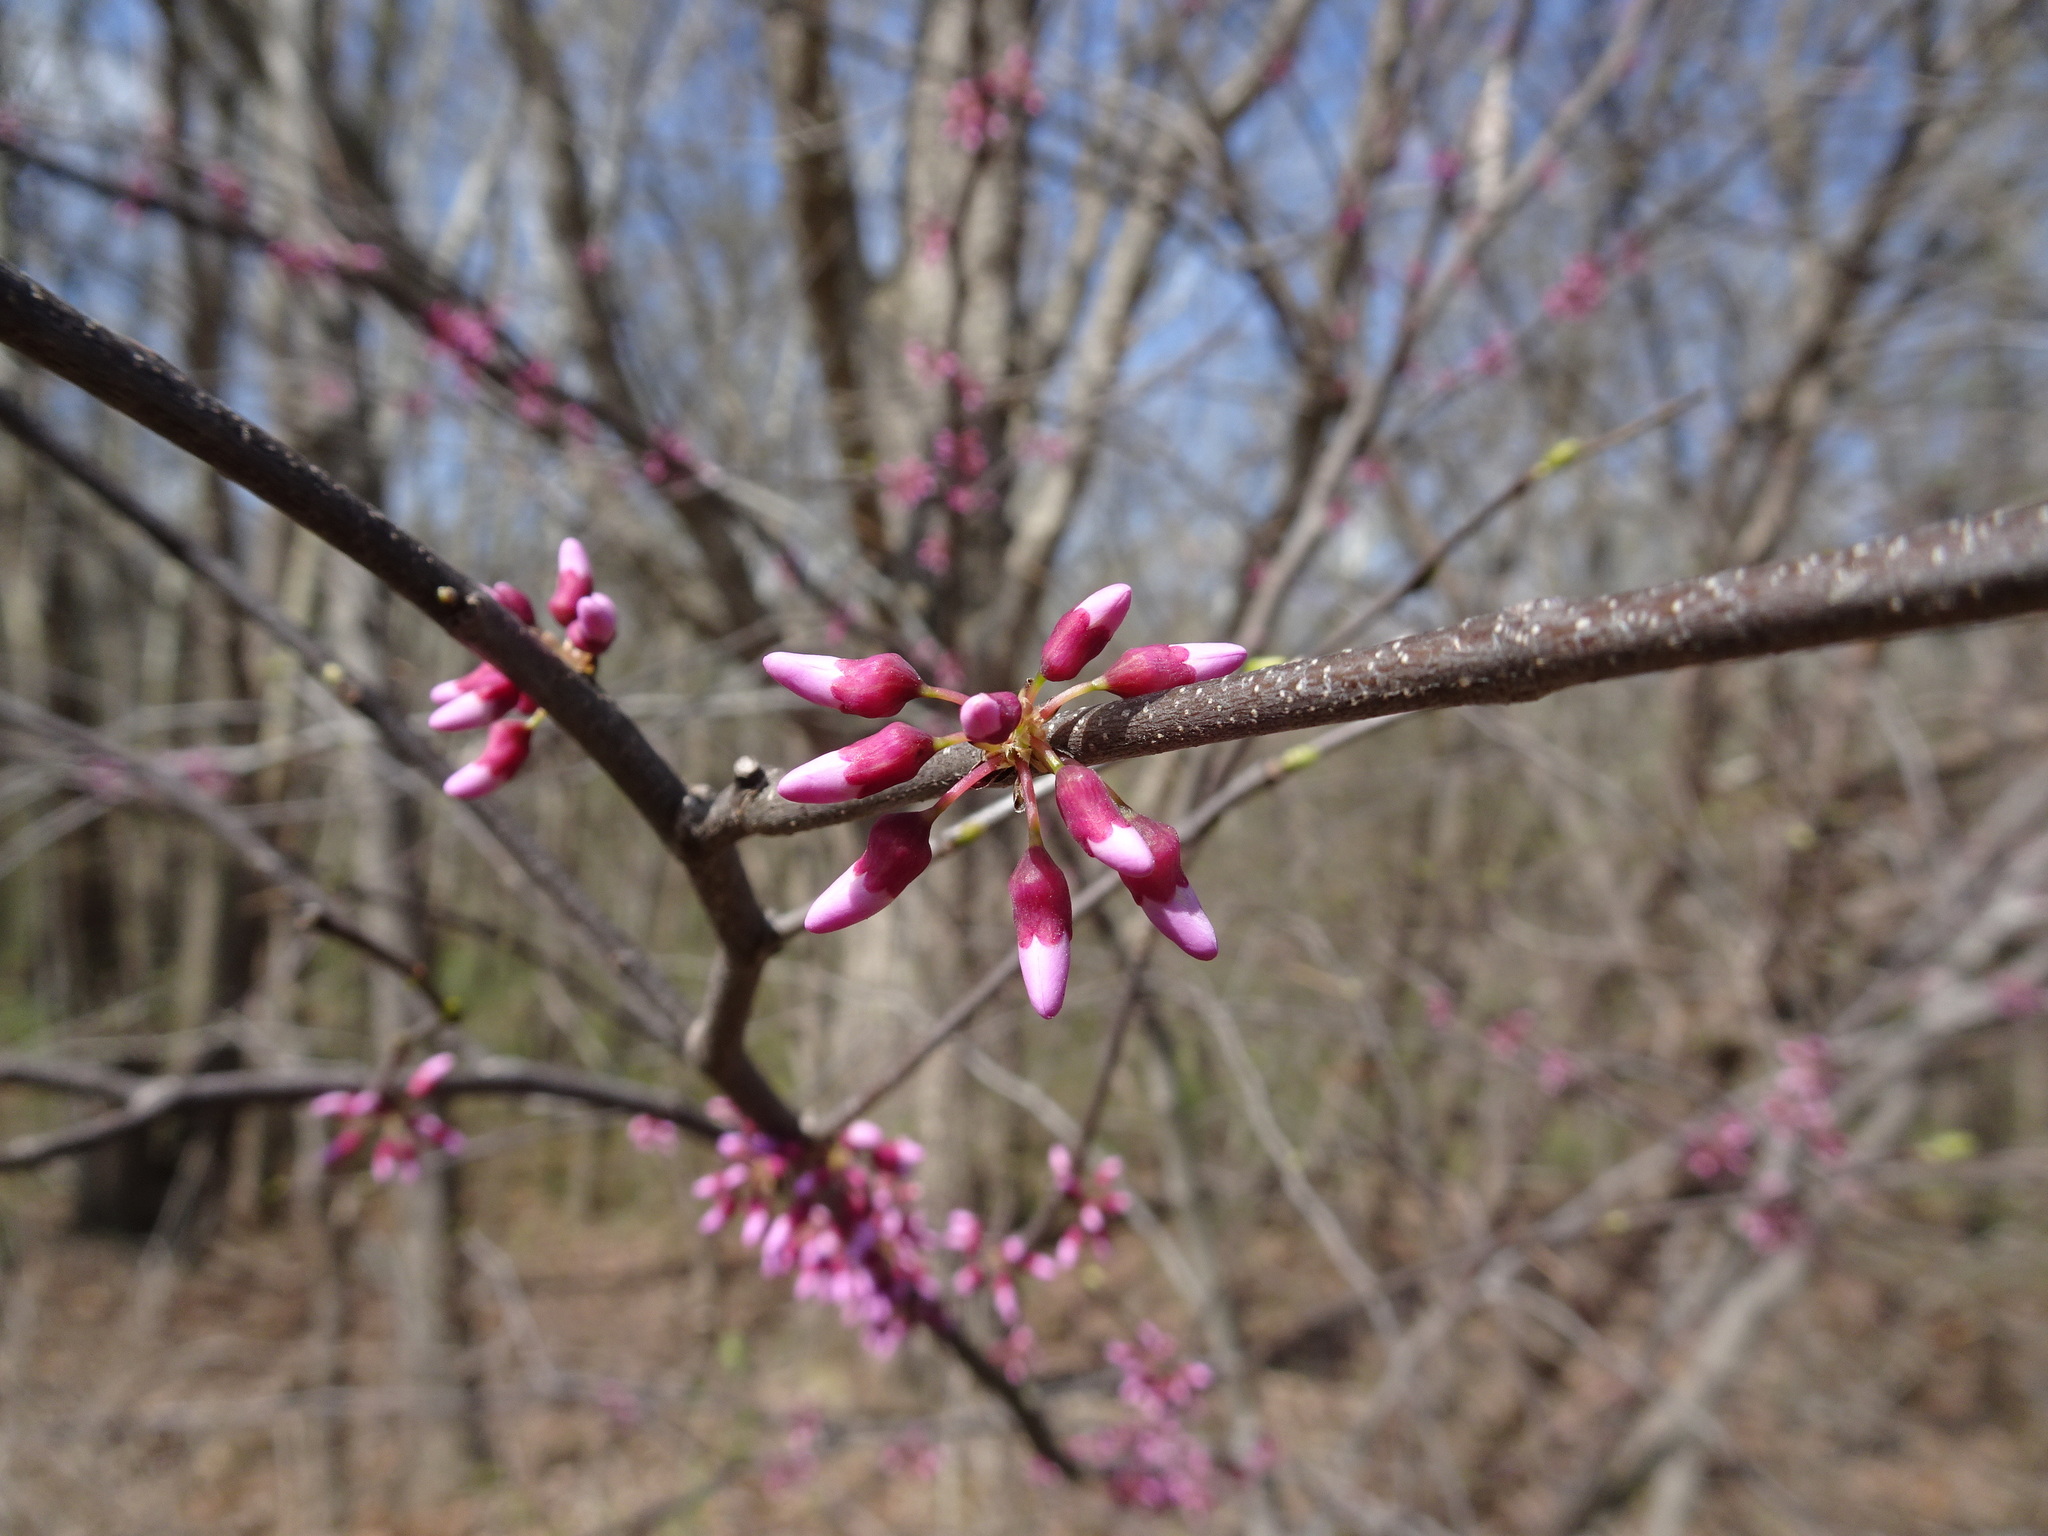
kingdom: Plantae
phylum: Tracheophyta
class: Magnoliopsida
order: Fabales
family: Fabaceae
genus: Cercis
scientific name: Cercis canadensis
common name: Eastern redbud
